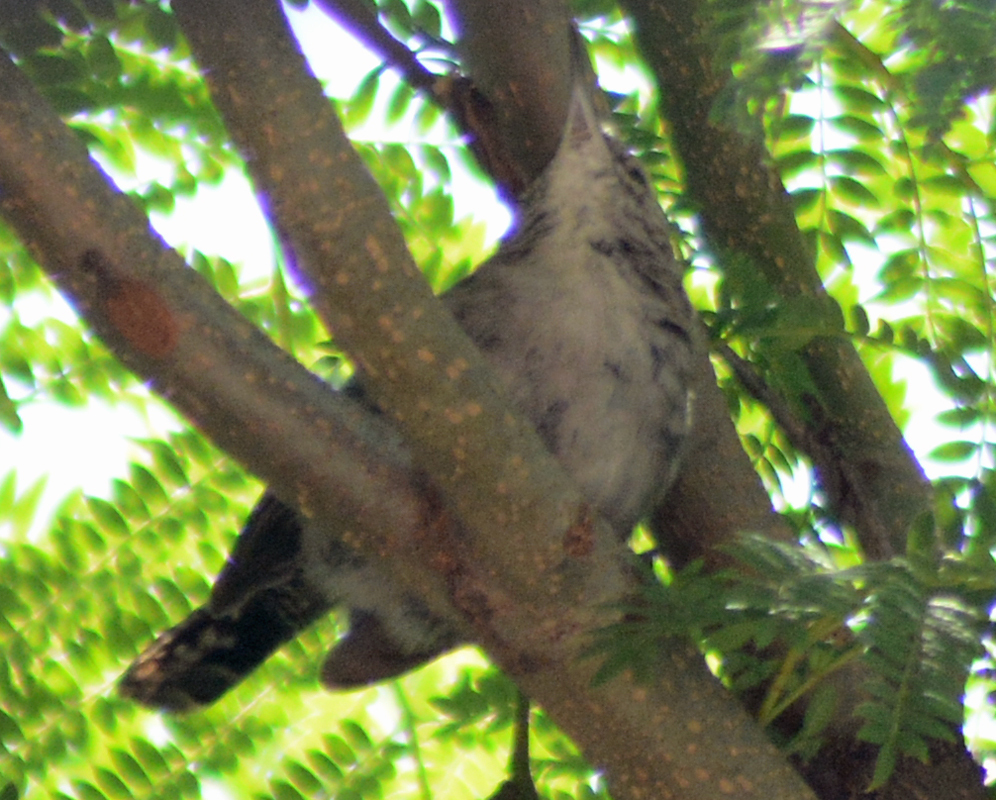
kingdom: Animalia
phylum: Chordata
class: Aves
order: Passeriformes
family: Troglodytidae
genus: Thryomanes
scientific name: Thryomanes bewickii
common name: Bewick's wren
